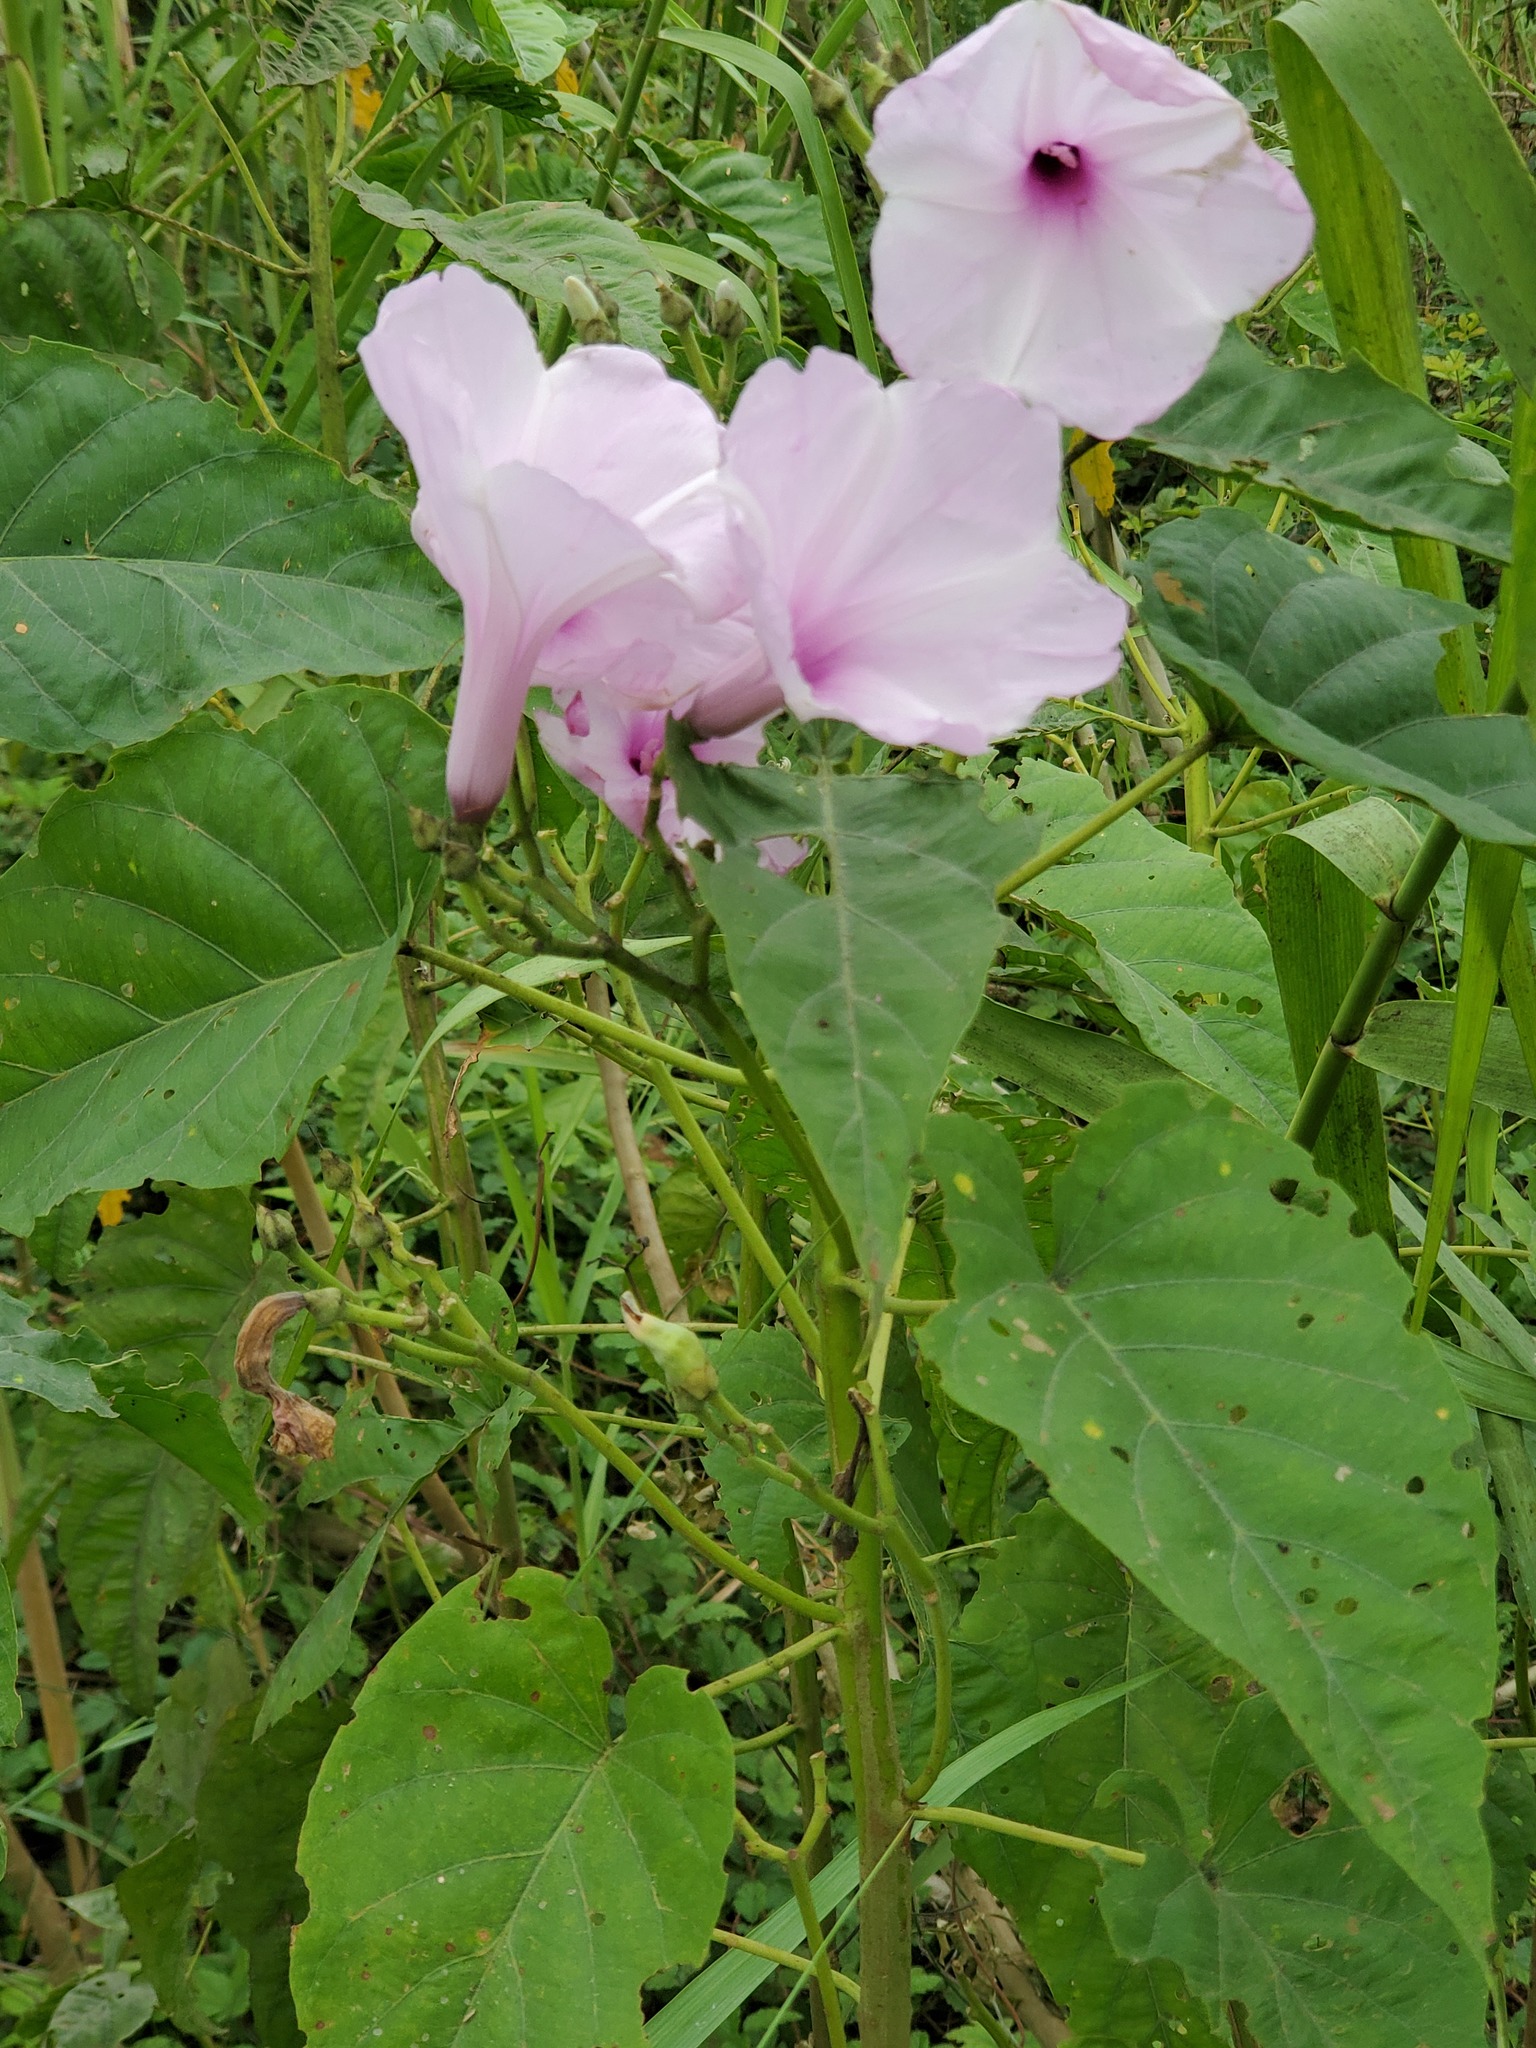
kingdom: Plantae
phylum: Tracheophyta
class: Magnoliopsida
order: Solanales
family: Convolvulaceae
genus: Ipomoea
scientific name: Ipomoea carnea
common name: Morning-glory
